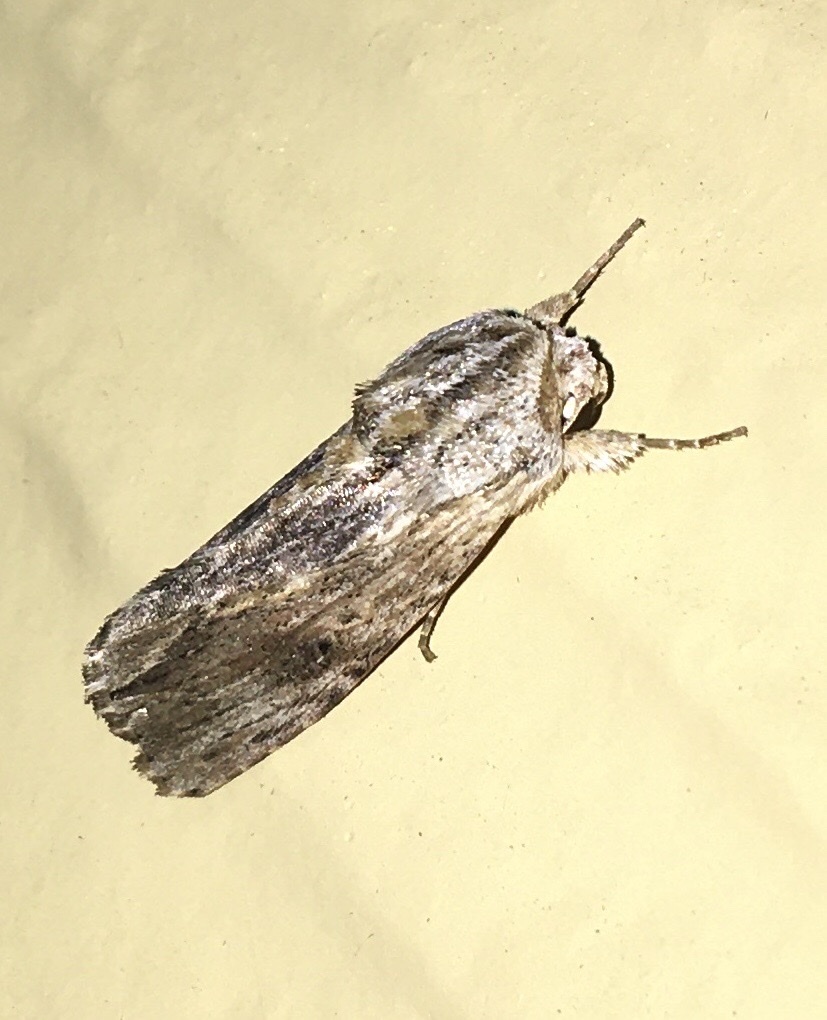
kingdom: Animalia
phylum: Arthropoda
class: Insecta
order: Lepidoptera
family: Noctuidae
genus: Spodoptera
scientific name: Spodoptera eridania
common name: Southern army worm
